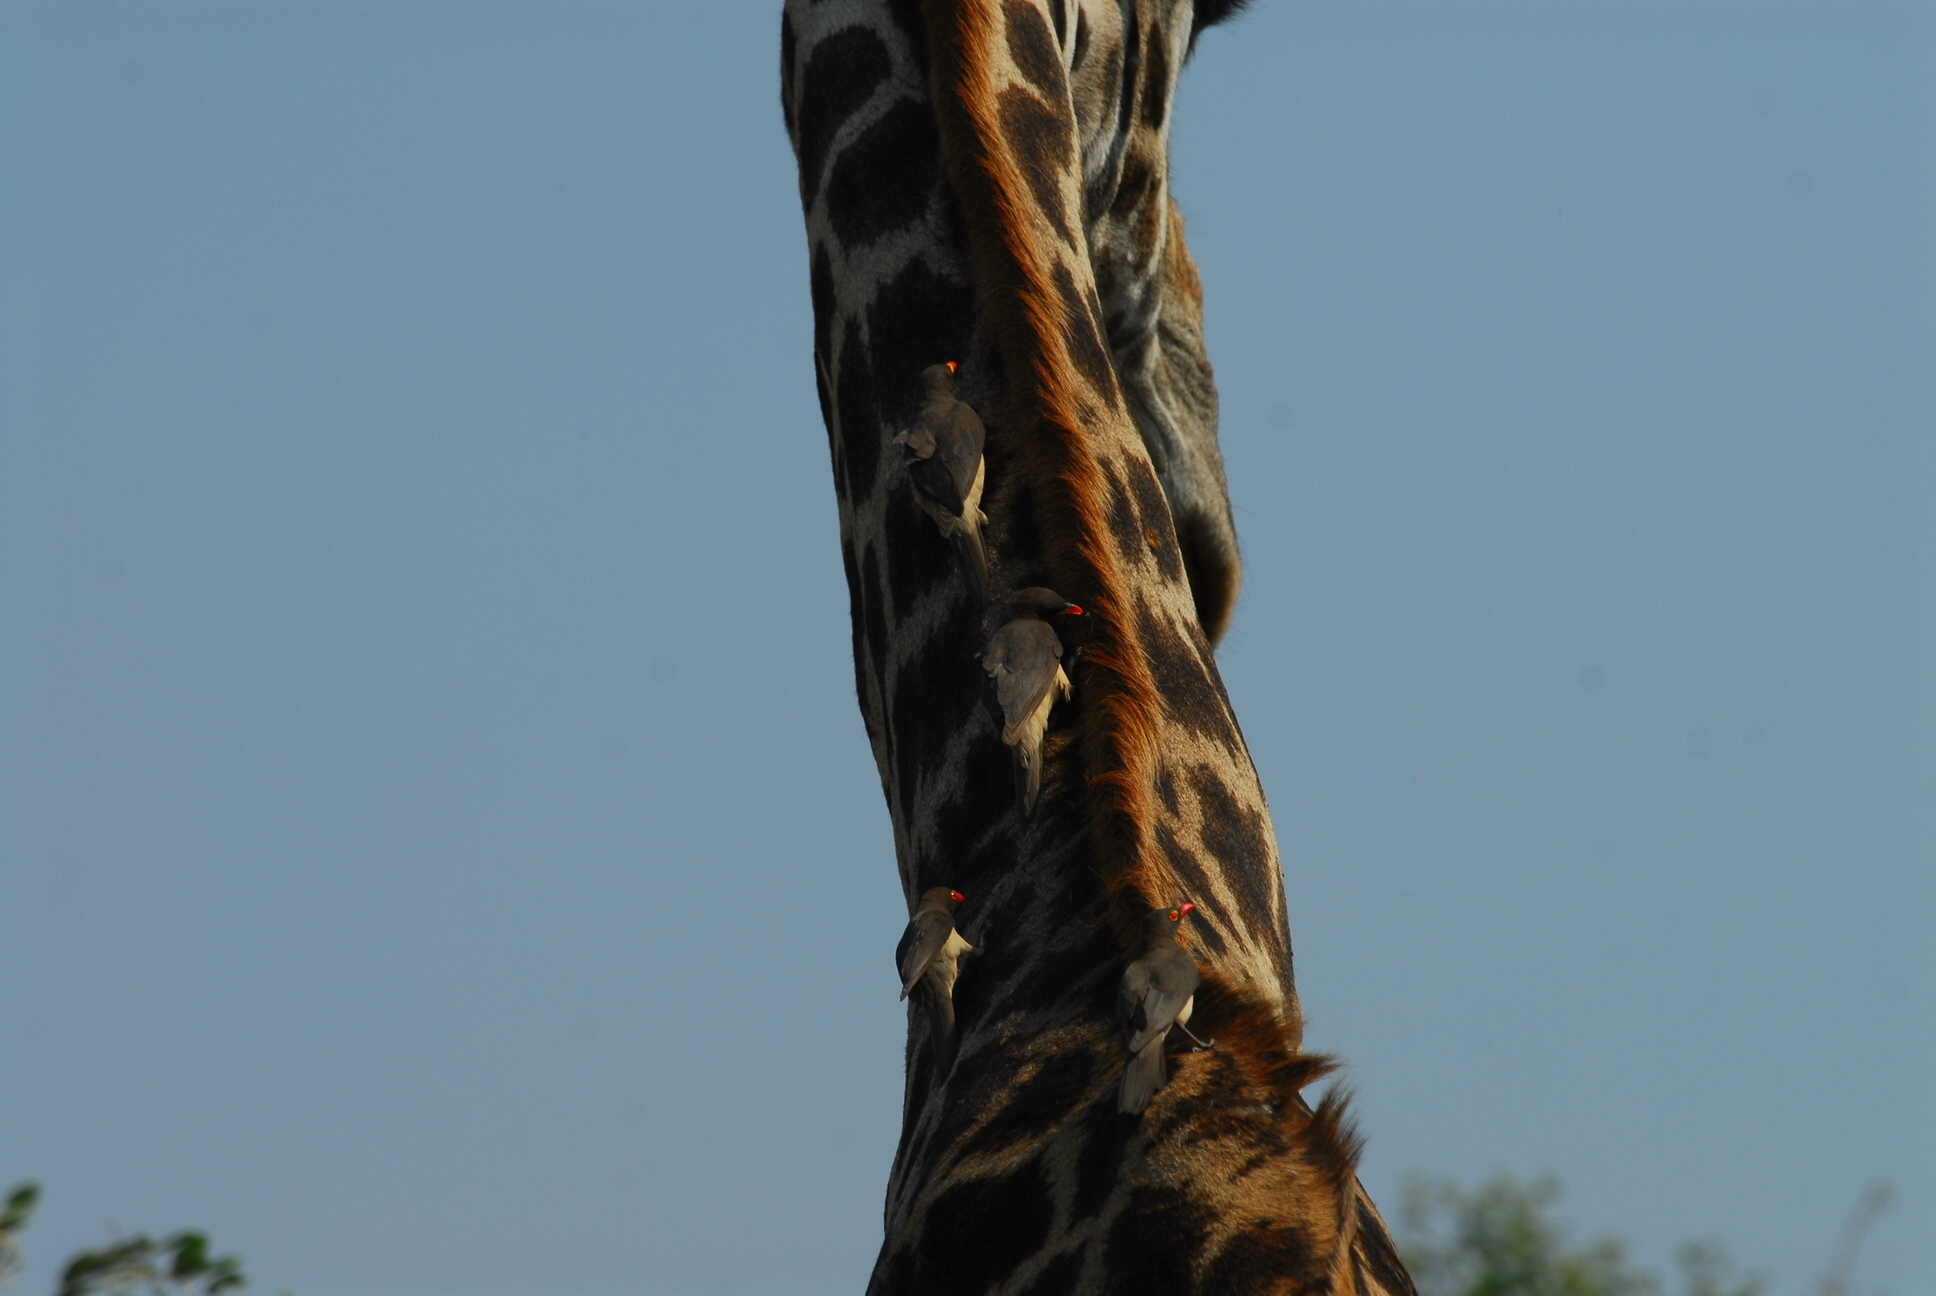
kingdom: Animalia
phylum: Chordata
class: Aves
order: Passeriformes
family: Buphagidae
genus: Buphagus
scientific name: Buphagus erythrorhynchus
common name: Red-billed oxpecker
